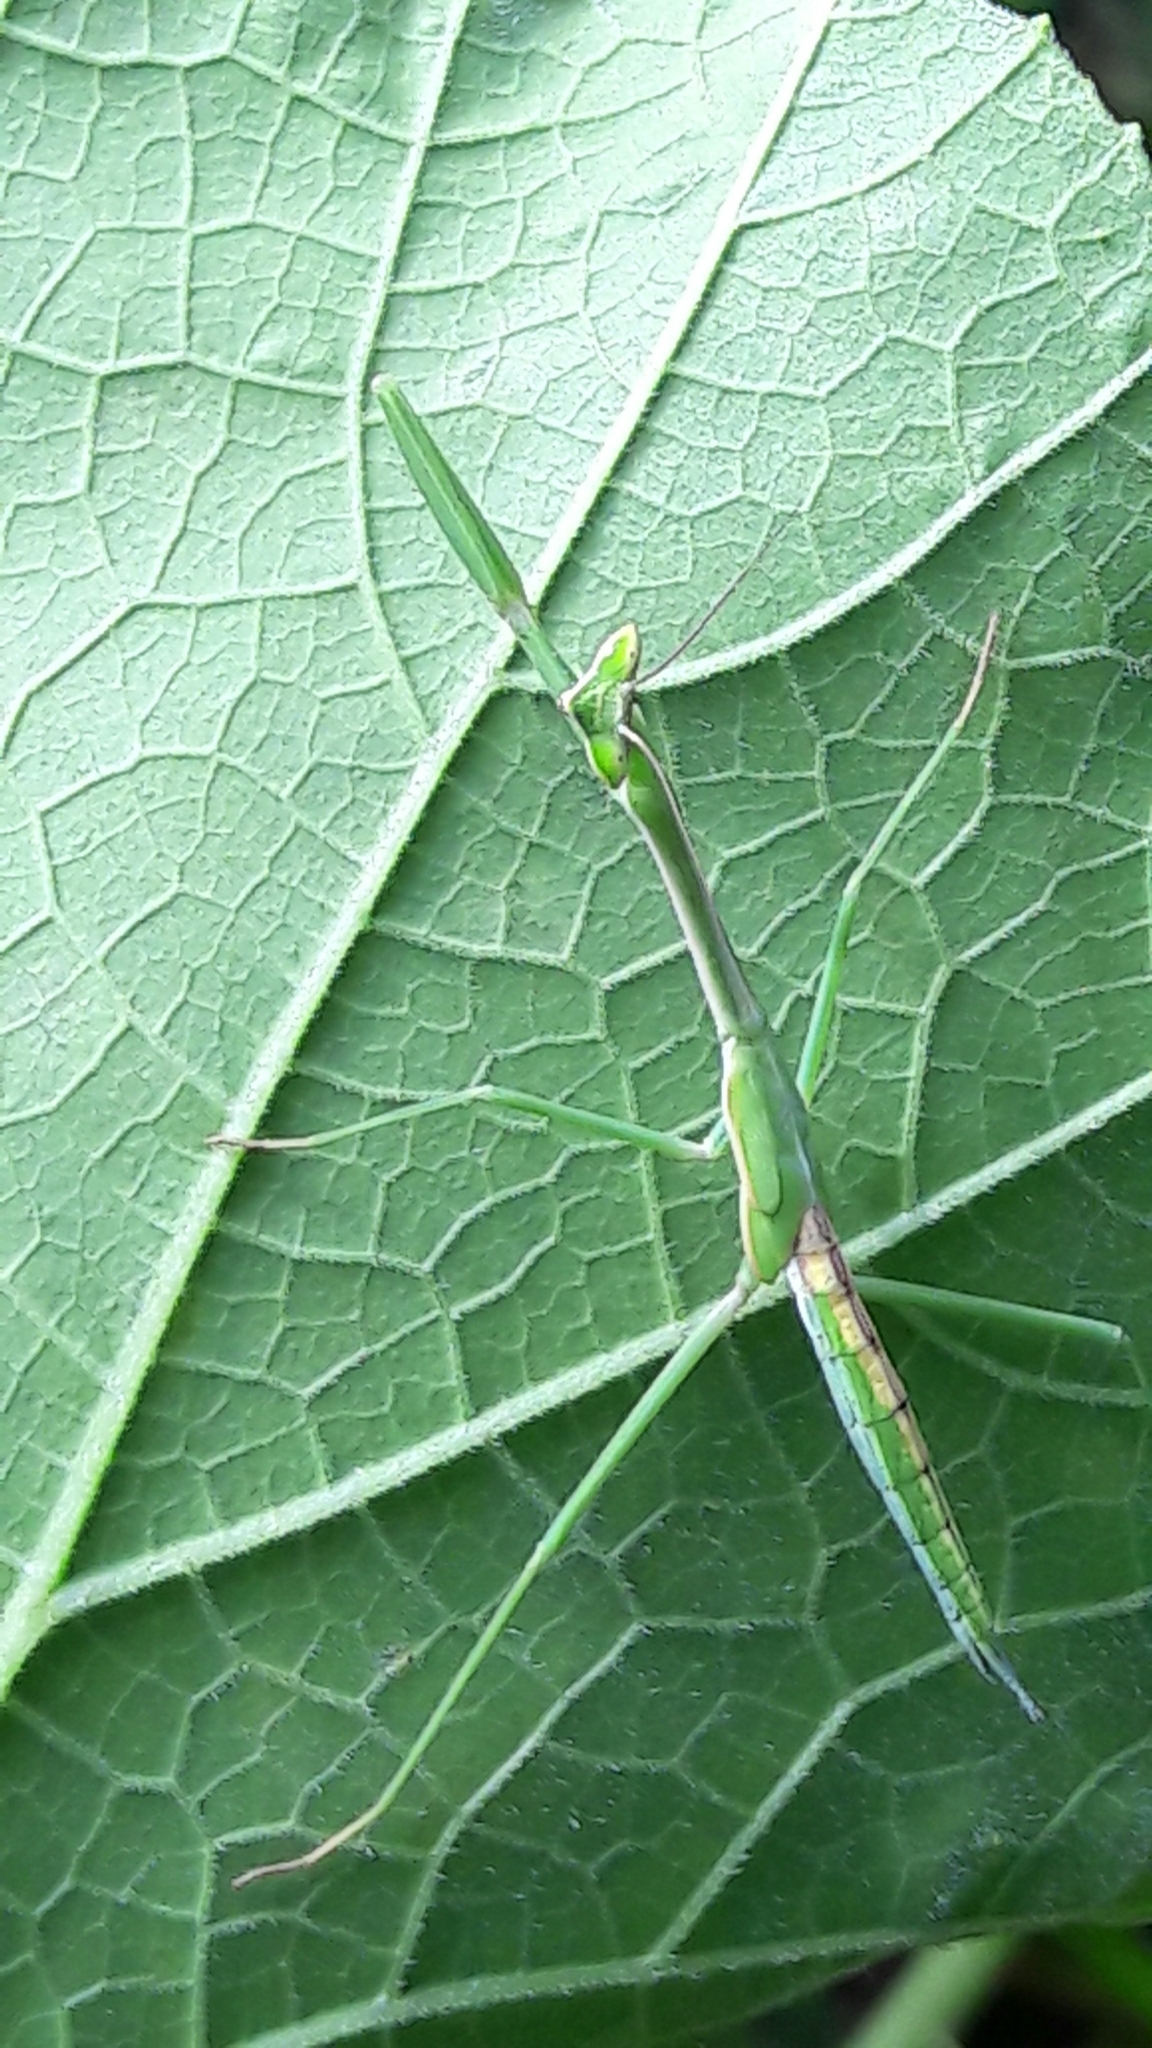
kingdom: Animalia
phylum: Arthropoda
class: Insecta
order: Mantodea
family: Mantidae
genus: Oxyopsis
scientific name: Oxyopsis
